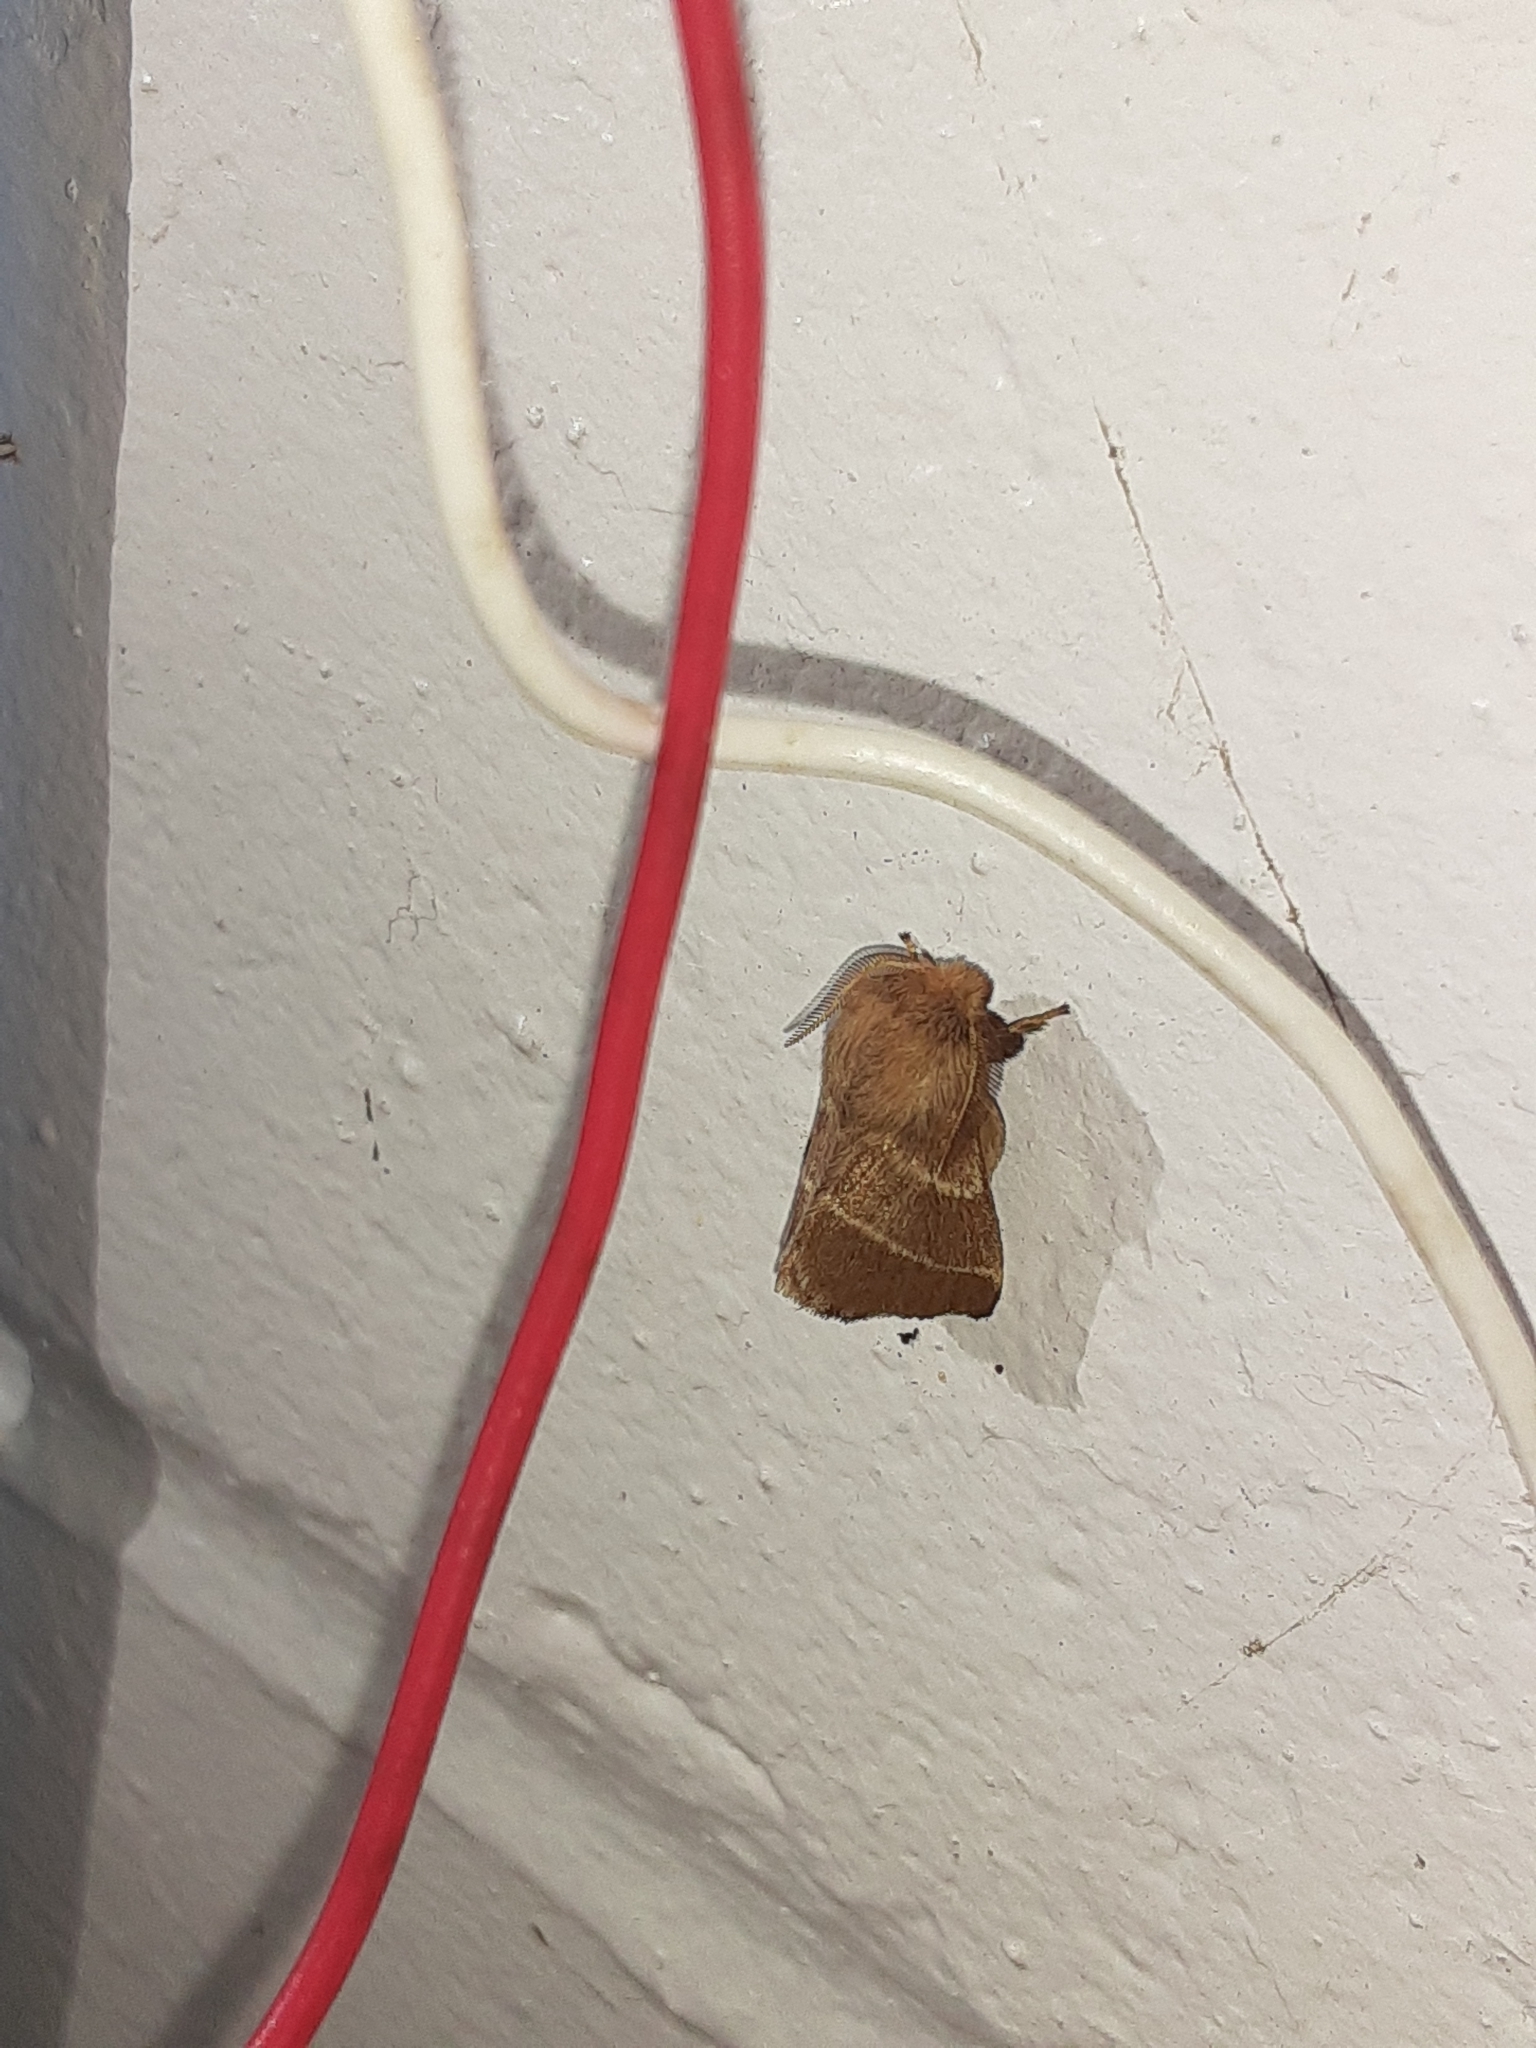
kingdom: Animalia
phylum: Arthropoda
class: Insecta
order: Lepidoptera
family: Lasiocampidae
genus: Malacosoma
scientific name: Malacosoma americana
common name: Eastern tent caterpillar moth
